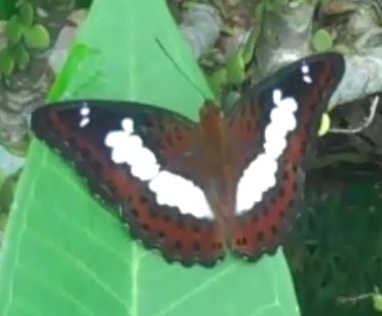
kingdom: Animalia
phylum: Arthropoda
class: Insecta
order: Lepidoptera
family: Nymphalidae
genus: Limenitis
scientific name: Limenitis Moduza procris
